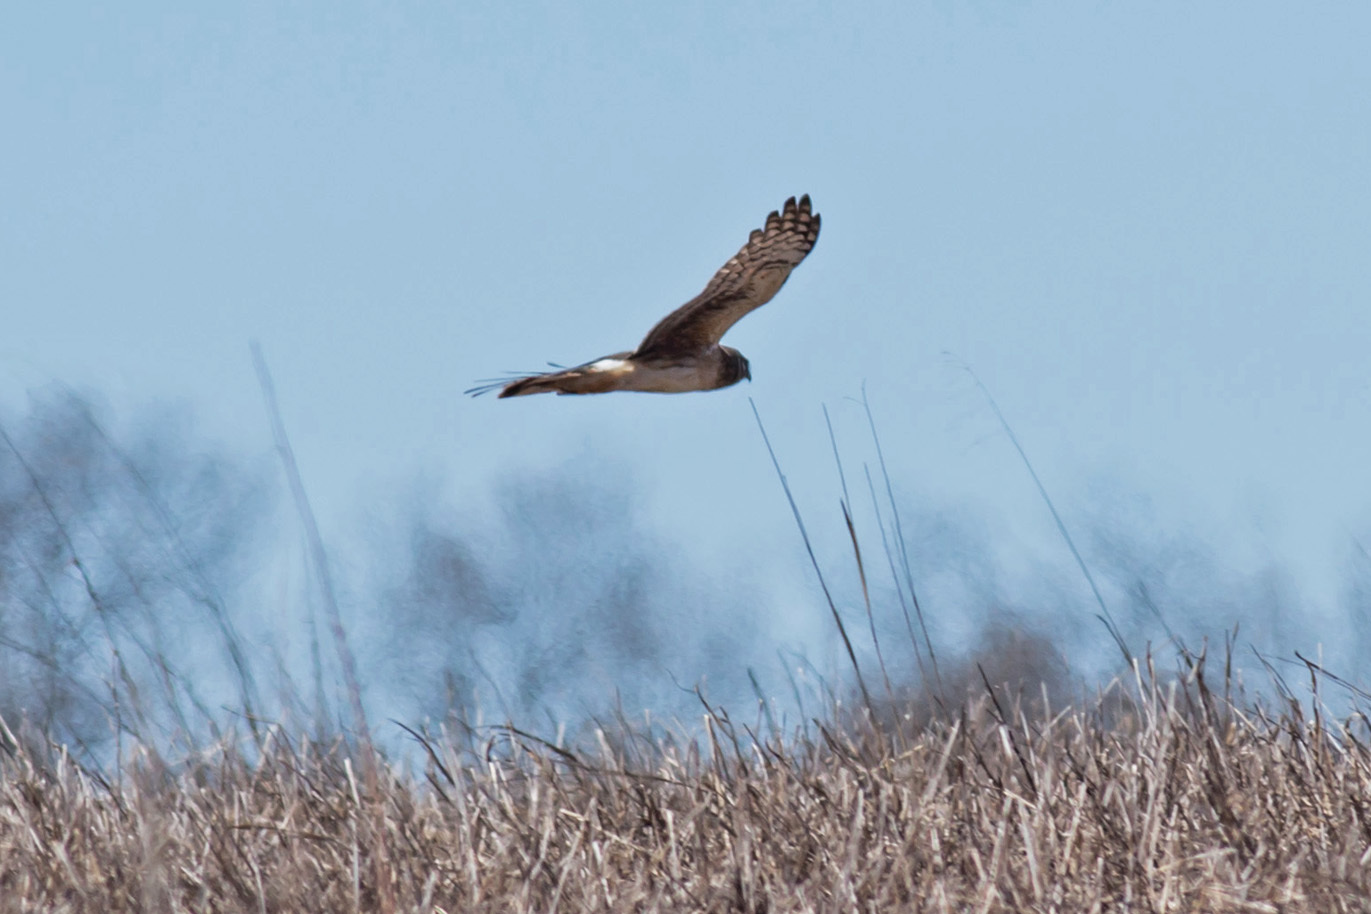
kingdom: Animalia
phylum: Chordata
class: Aves
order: Accipitriformes
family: Accipitridae
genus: Circus
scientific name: Circus cyaneus
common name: Hen harrier
